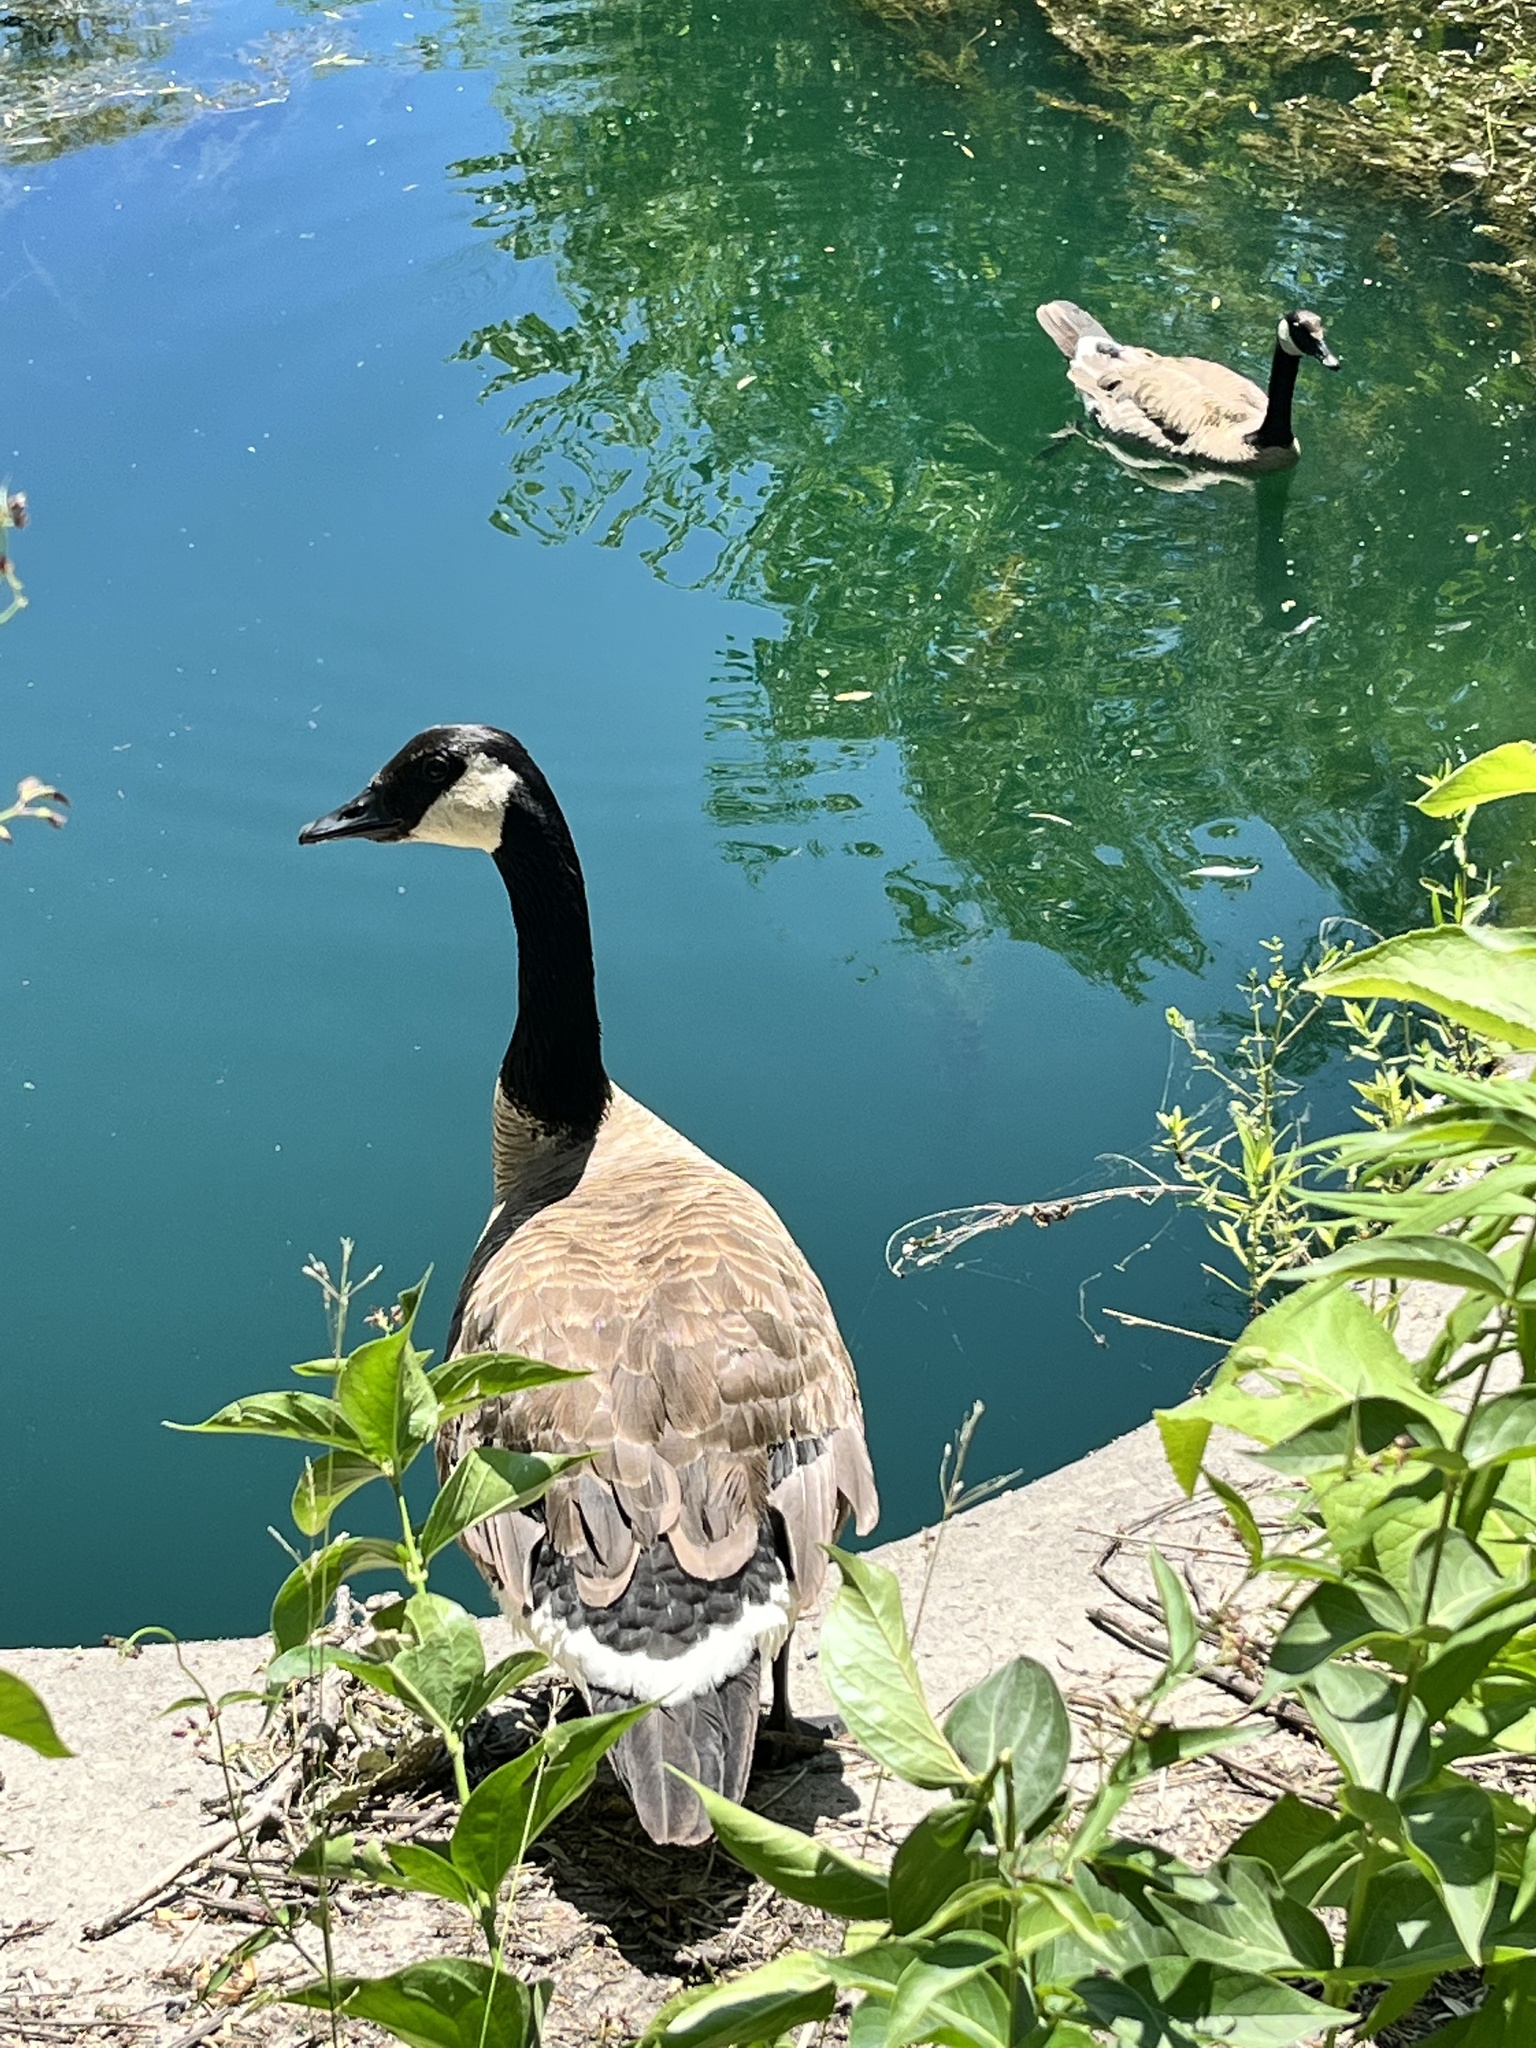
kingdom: Animalia
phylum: Chordata
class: Aves
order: Anseriformes
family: Anatidae
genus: Branta
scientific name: Branta canadensis
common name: Canada goose
